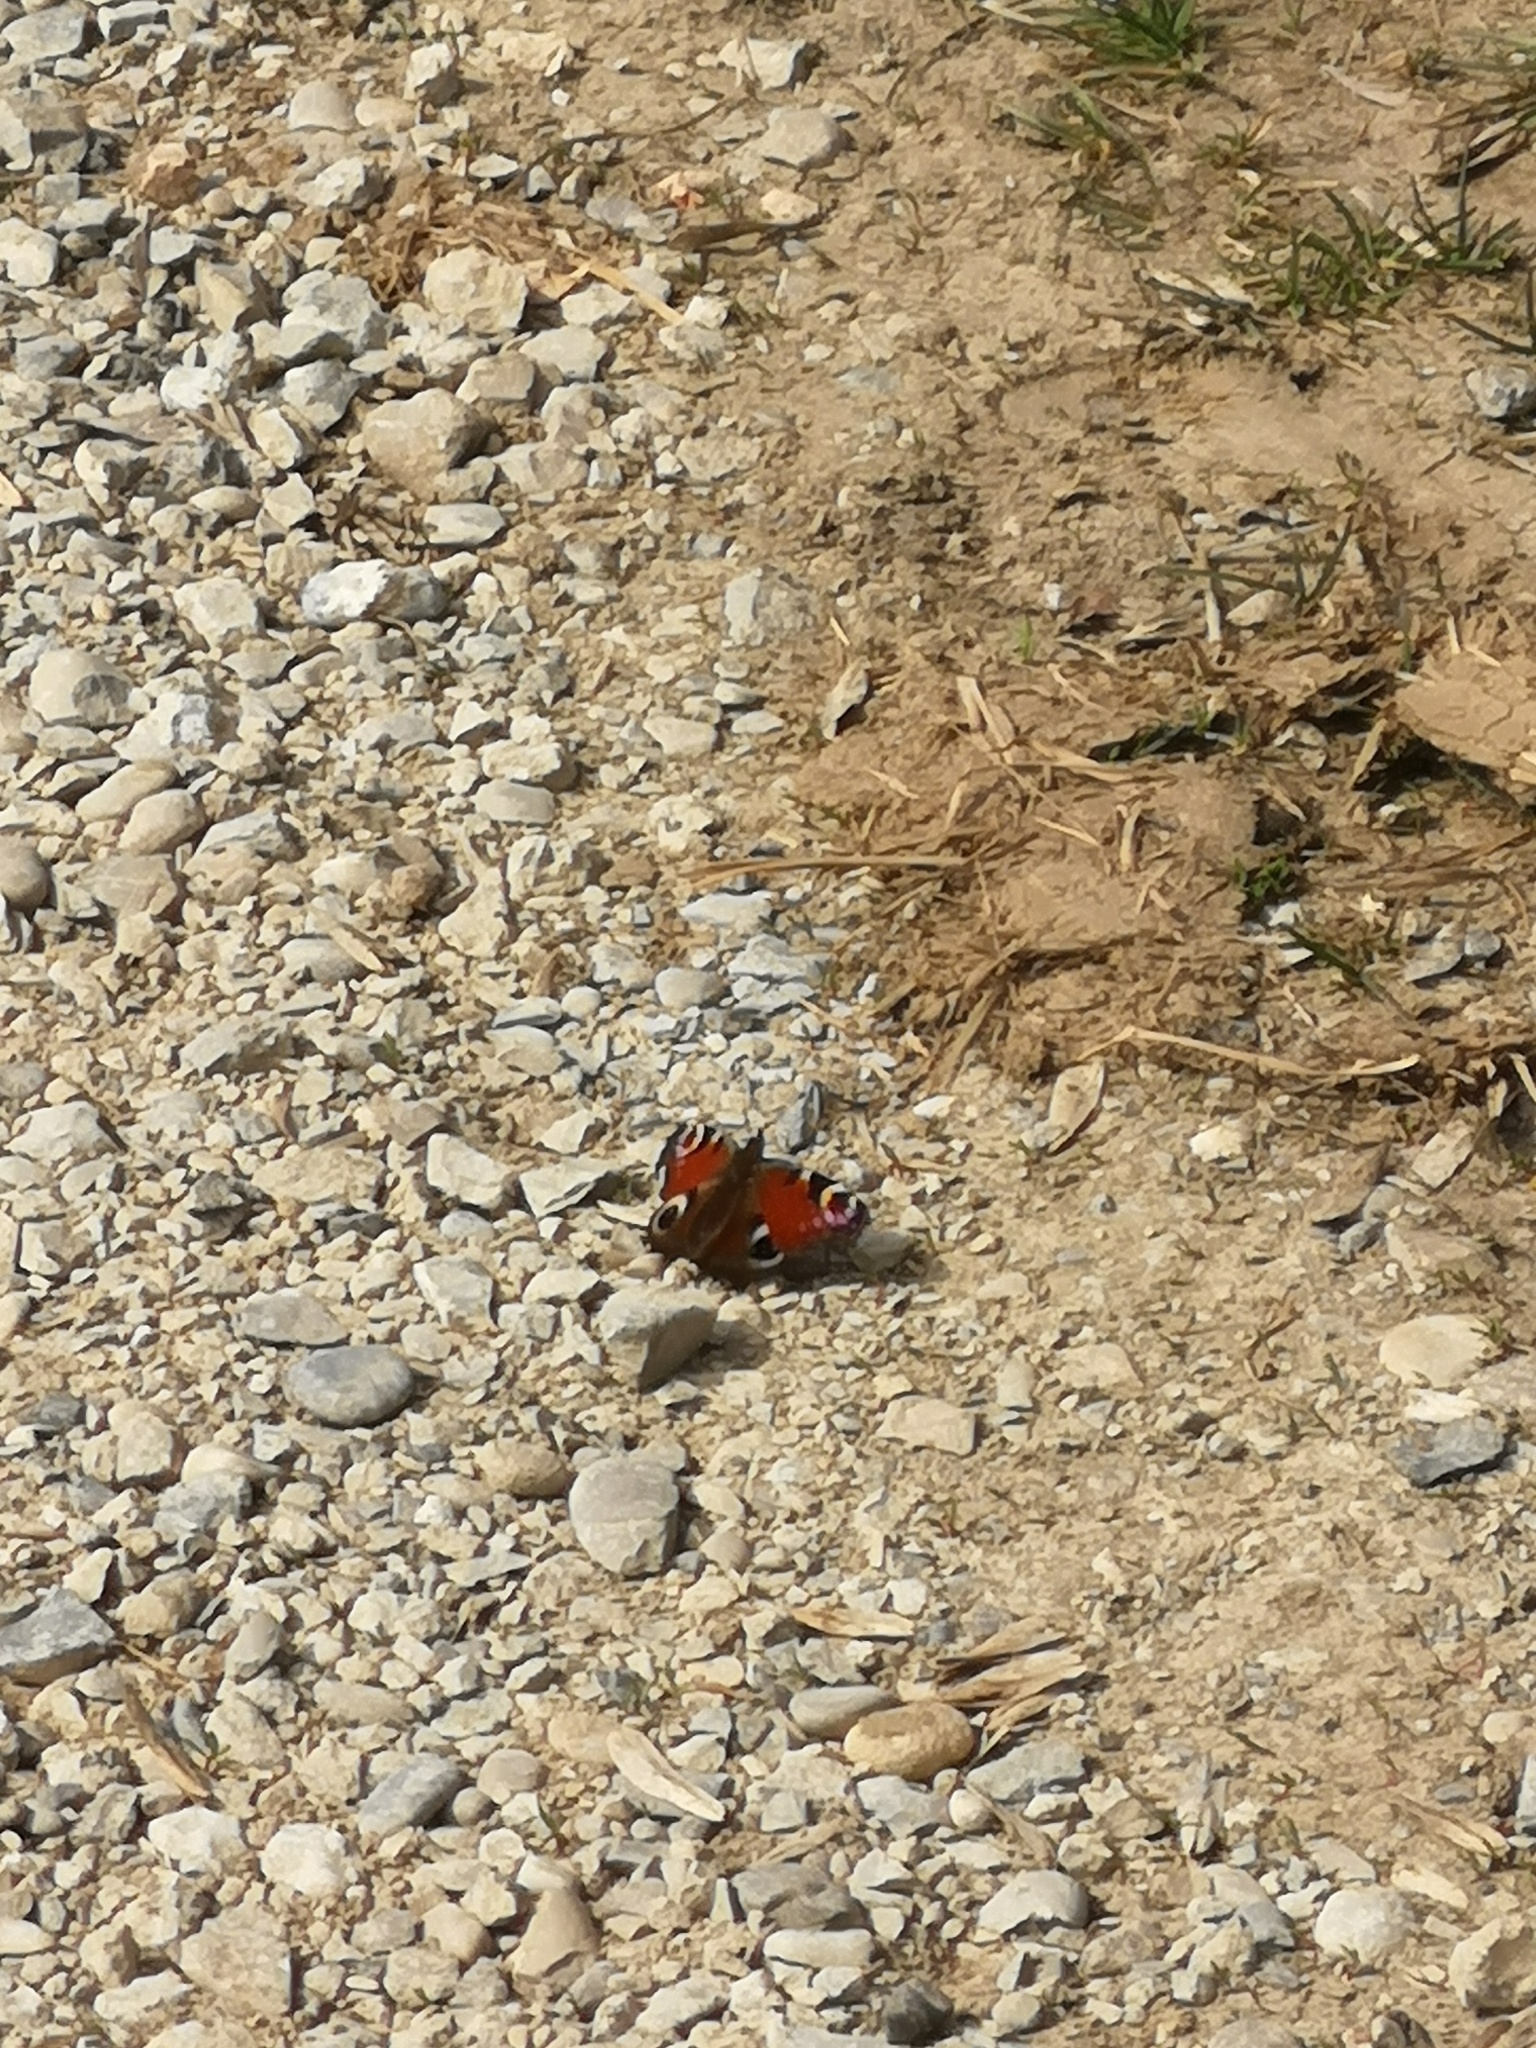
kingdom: Animalia
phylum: Arthropoda
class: Insecta
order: Lepidoptera
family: Nymphalidae
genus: Aglais
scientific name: Aglais io
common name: Peacock
